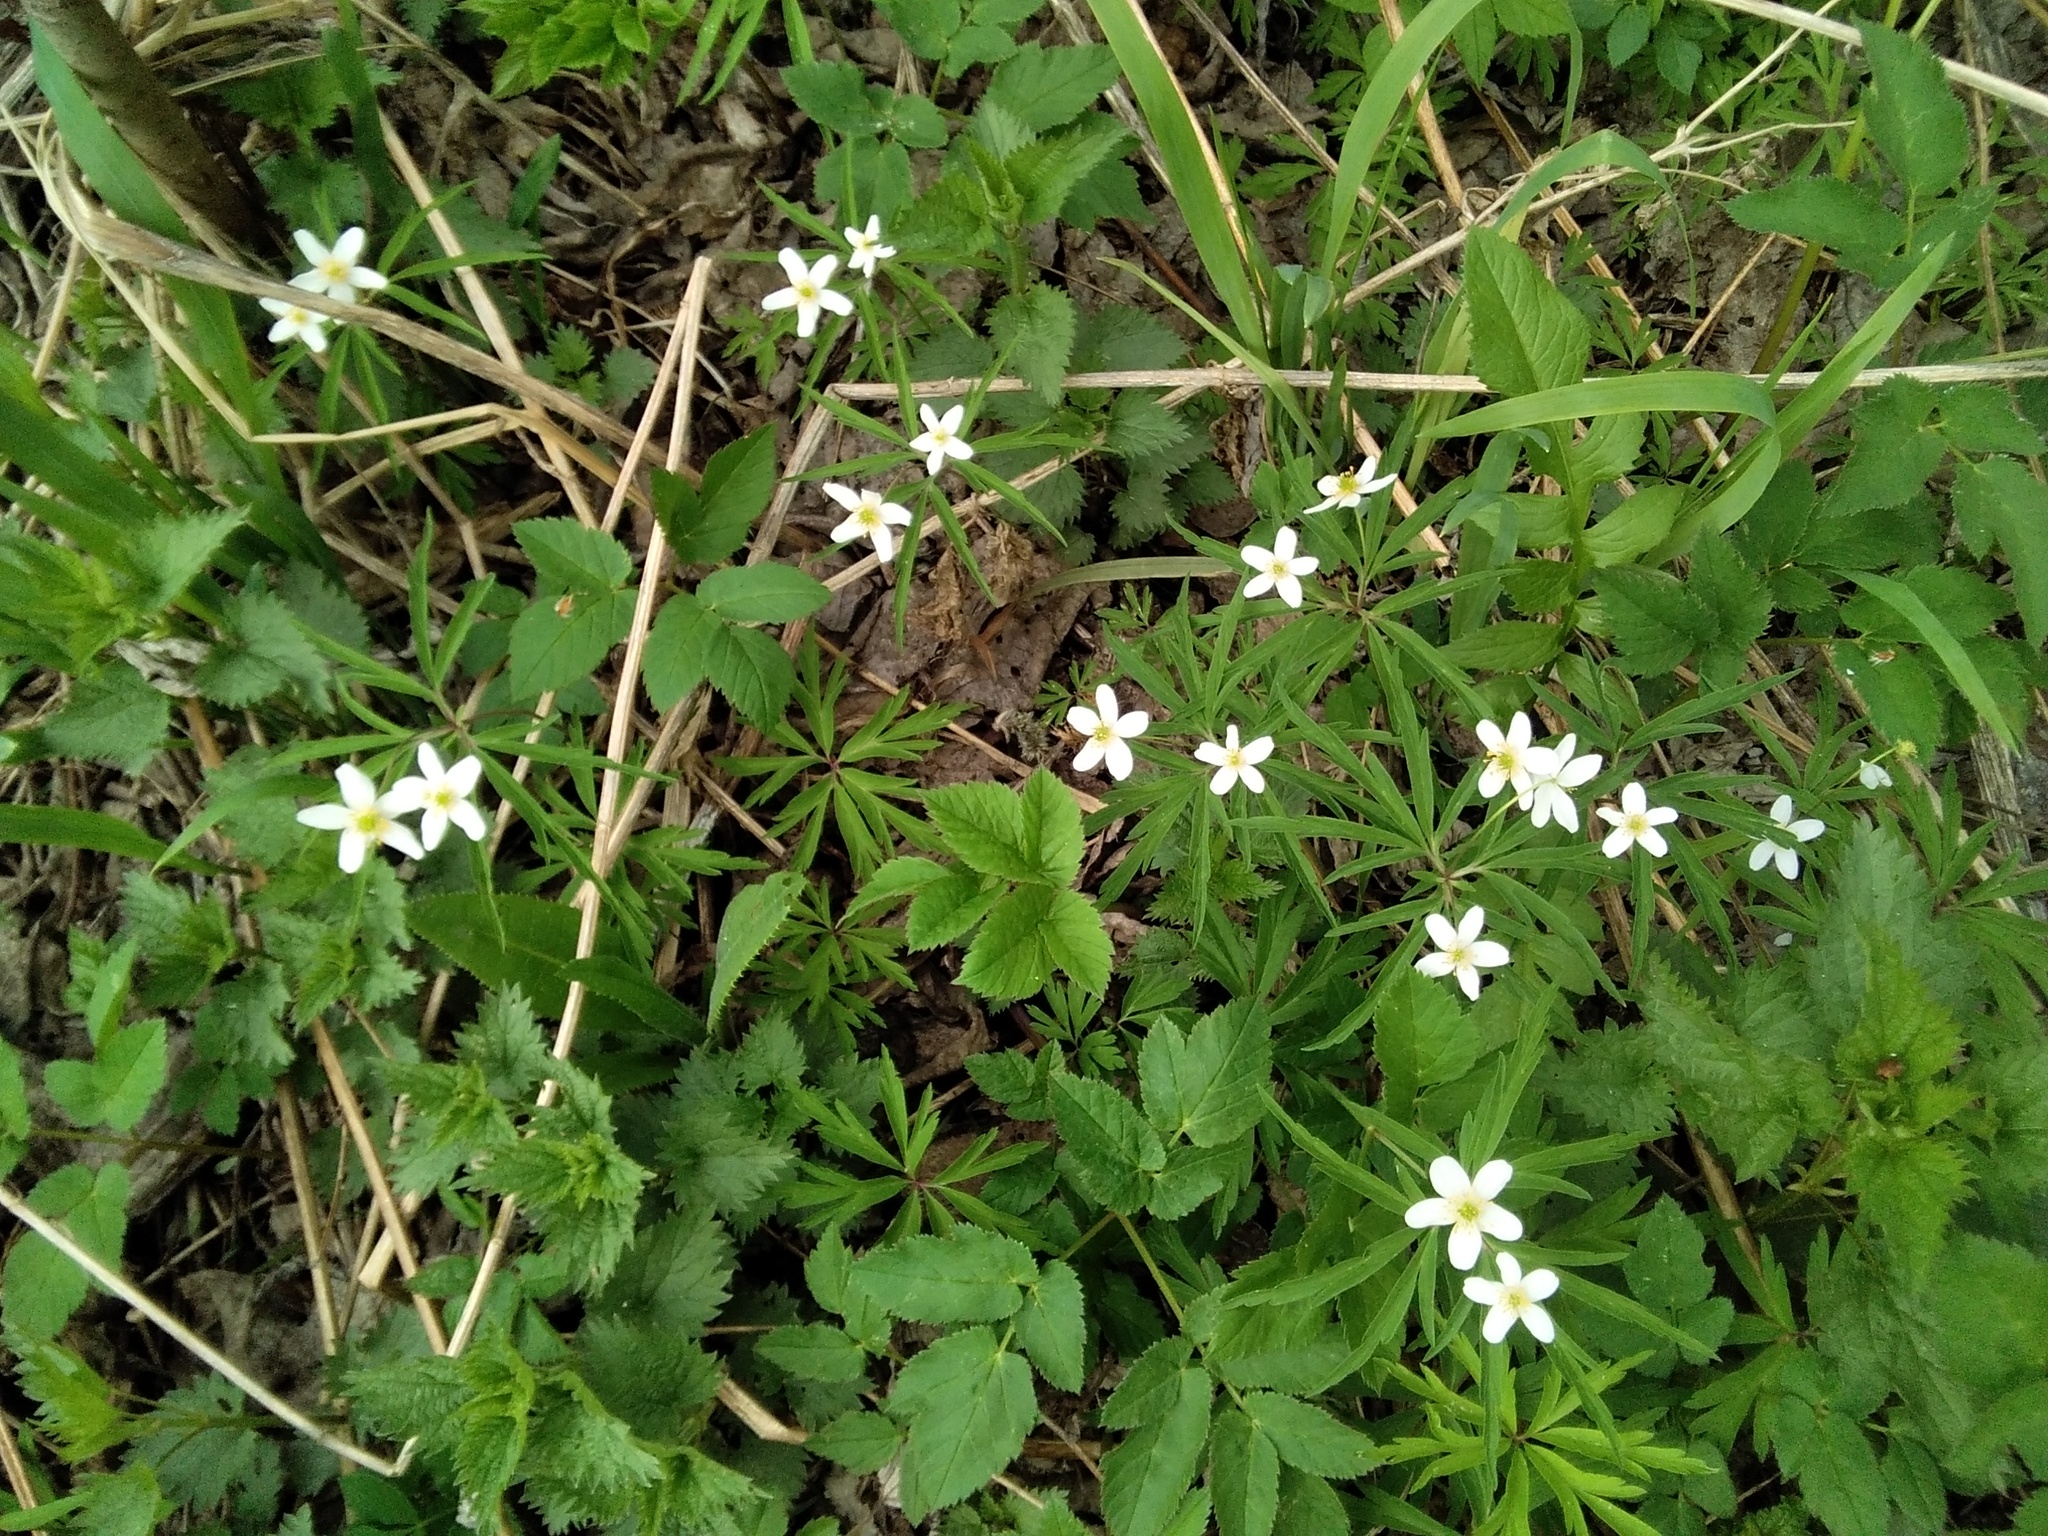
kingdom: Plantae
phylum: Tracheophyta
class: Magnoliopsida
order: Ranunculales
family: Ranunculaceae
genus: Anemone
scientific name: Anemone caerulea
